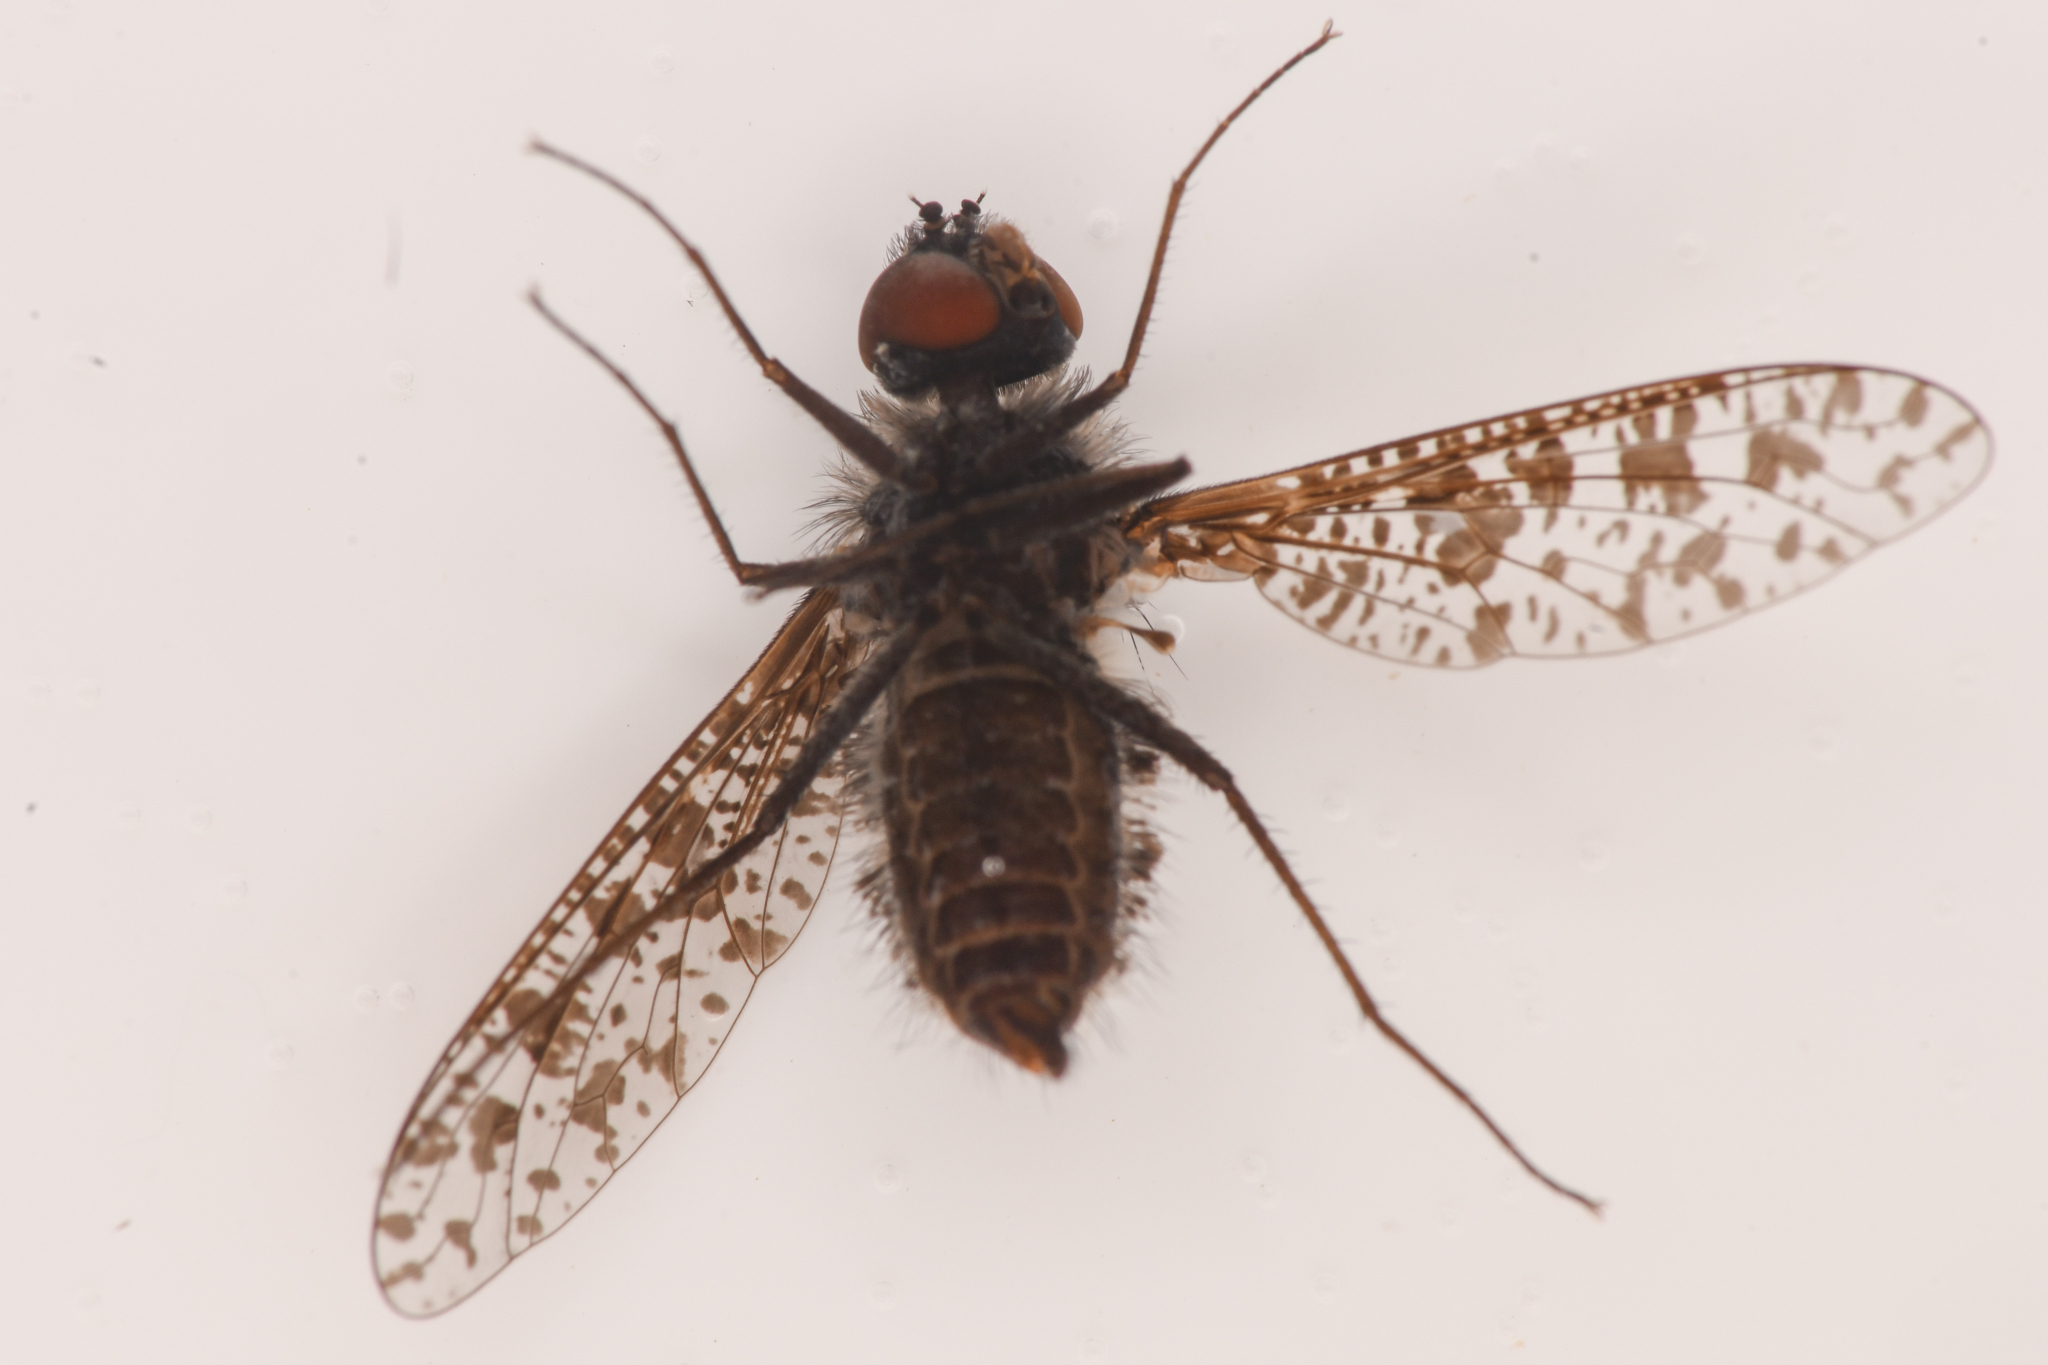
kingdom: Animalia
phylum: Arthropoda
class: Insecta
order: Diptera
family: Bombyliidae
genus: Anthrax
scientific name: Anthrax irroratus
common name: Spotted bee fly
